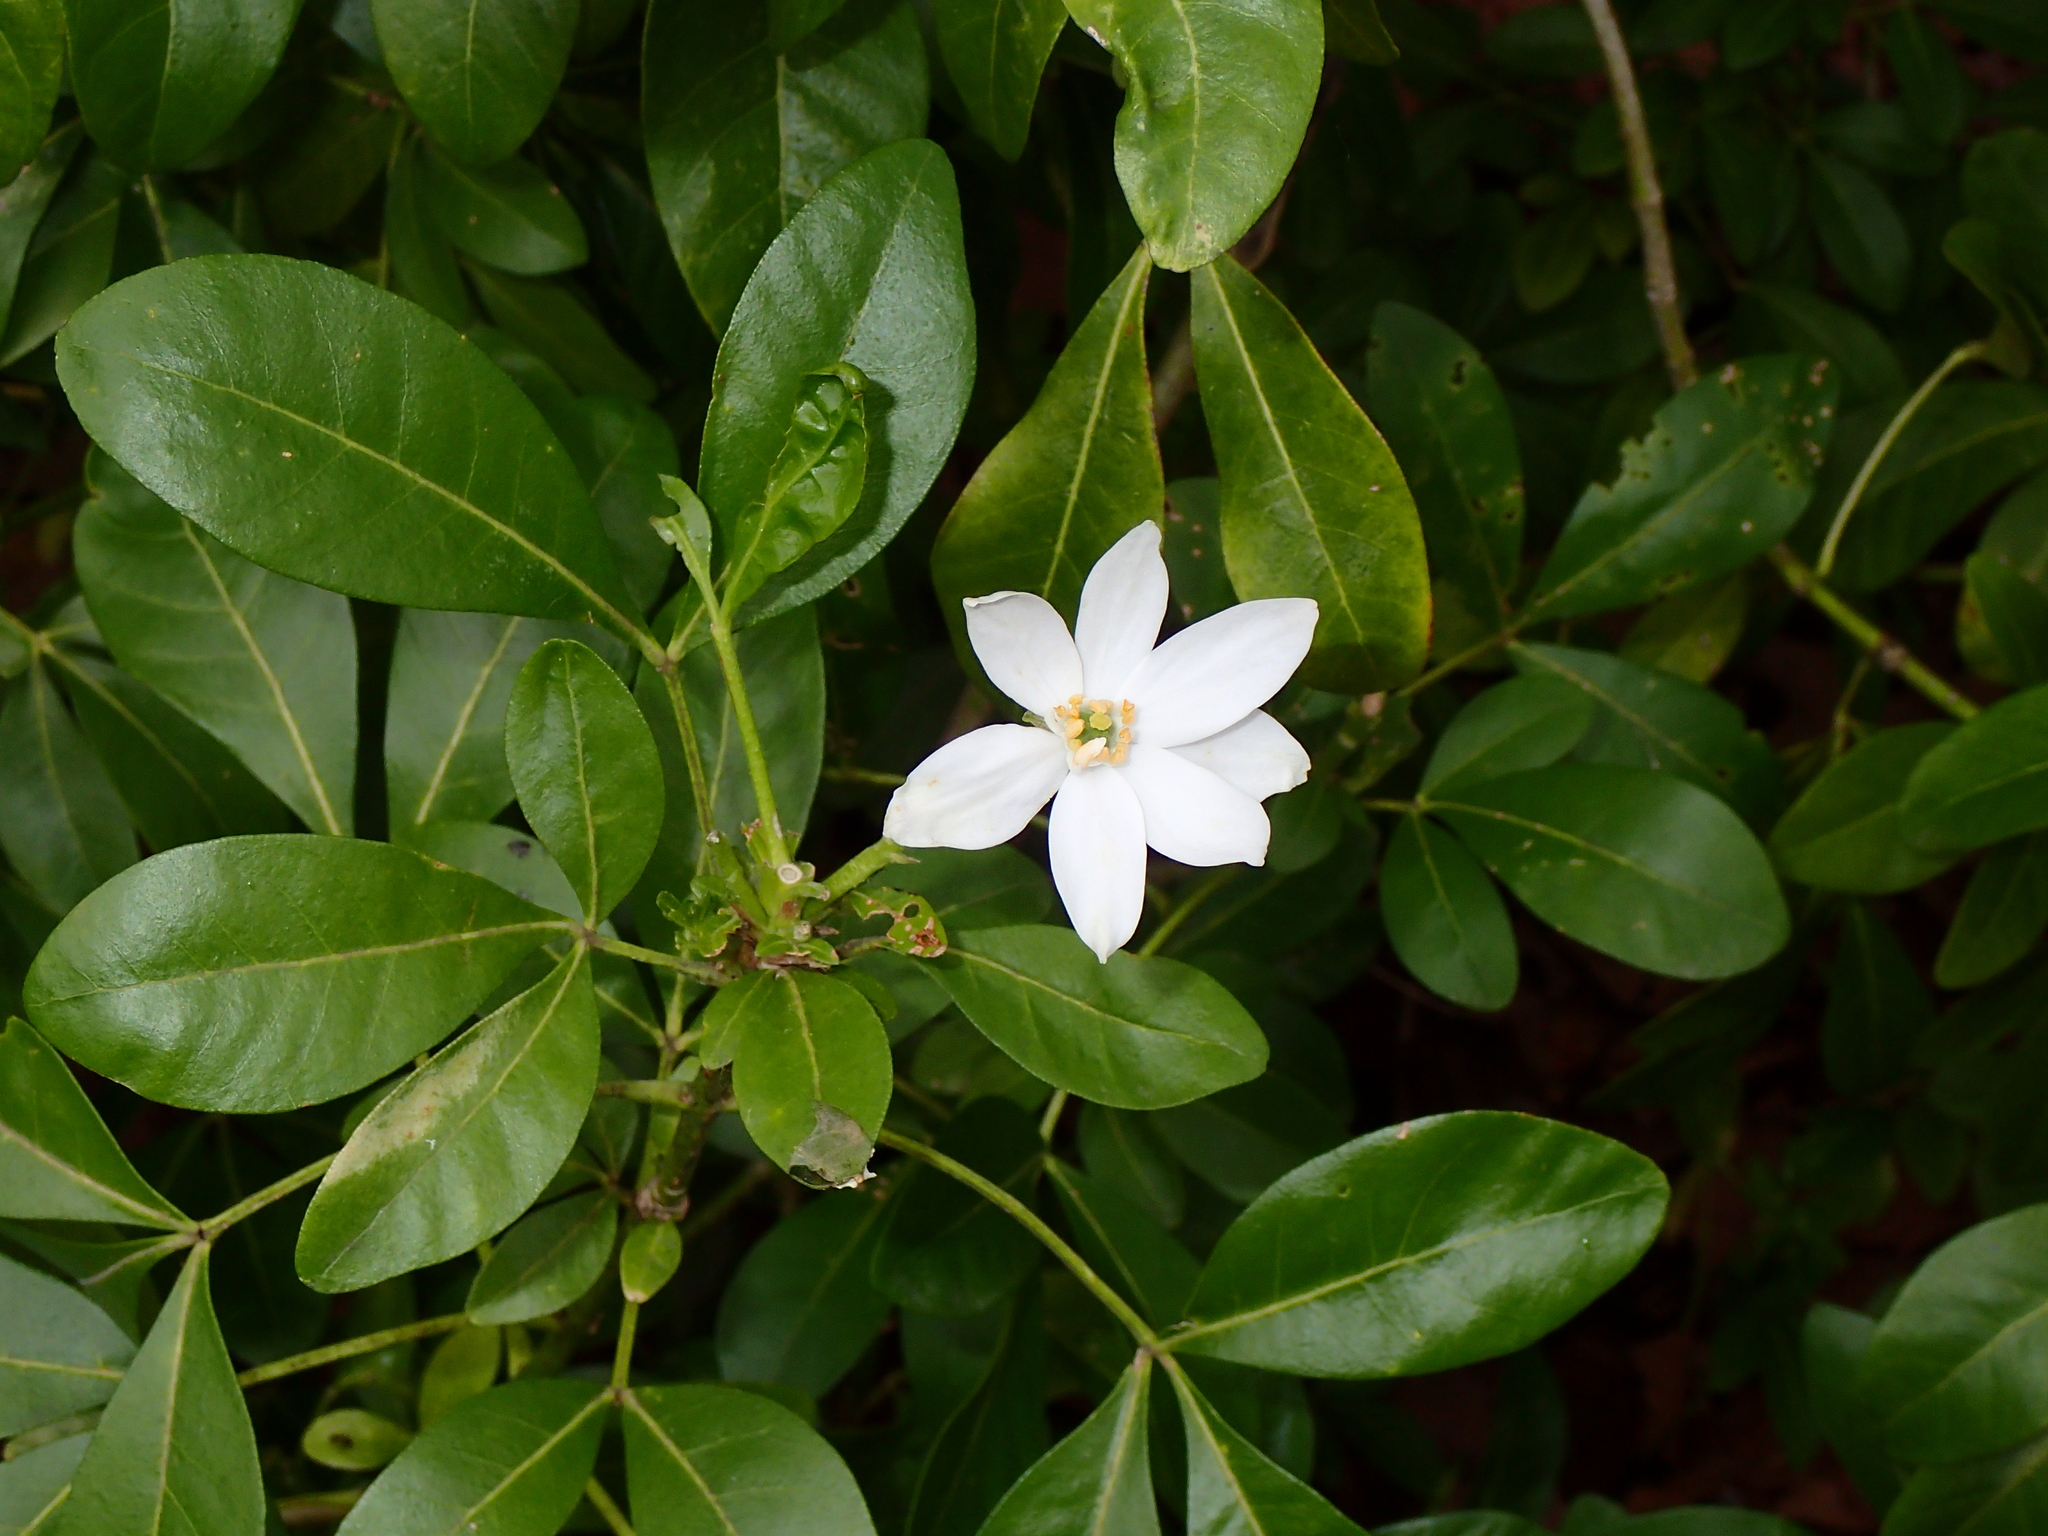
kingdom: Plantae
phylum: Tracheophyta
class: Magnoliopsida
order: Sapindales
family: Rutaceae
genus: Choisya
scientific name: Choisya ternata
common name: Mexican orange
